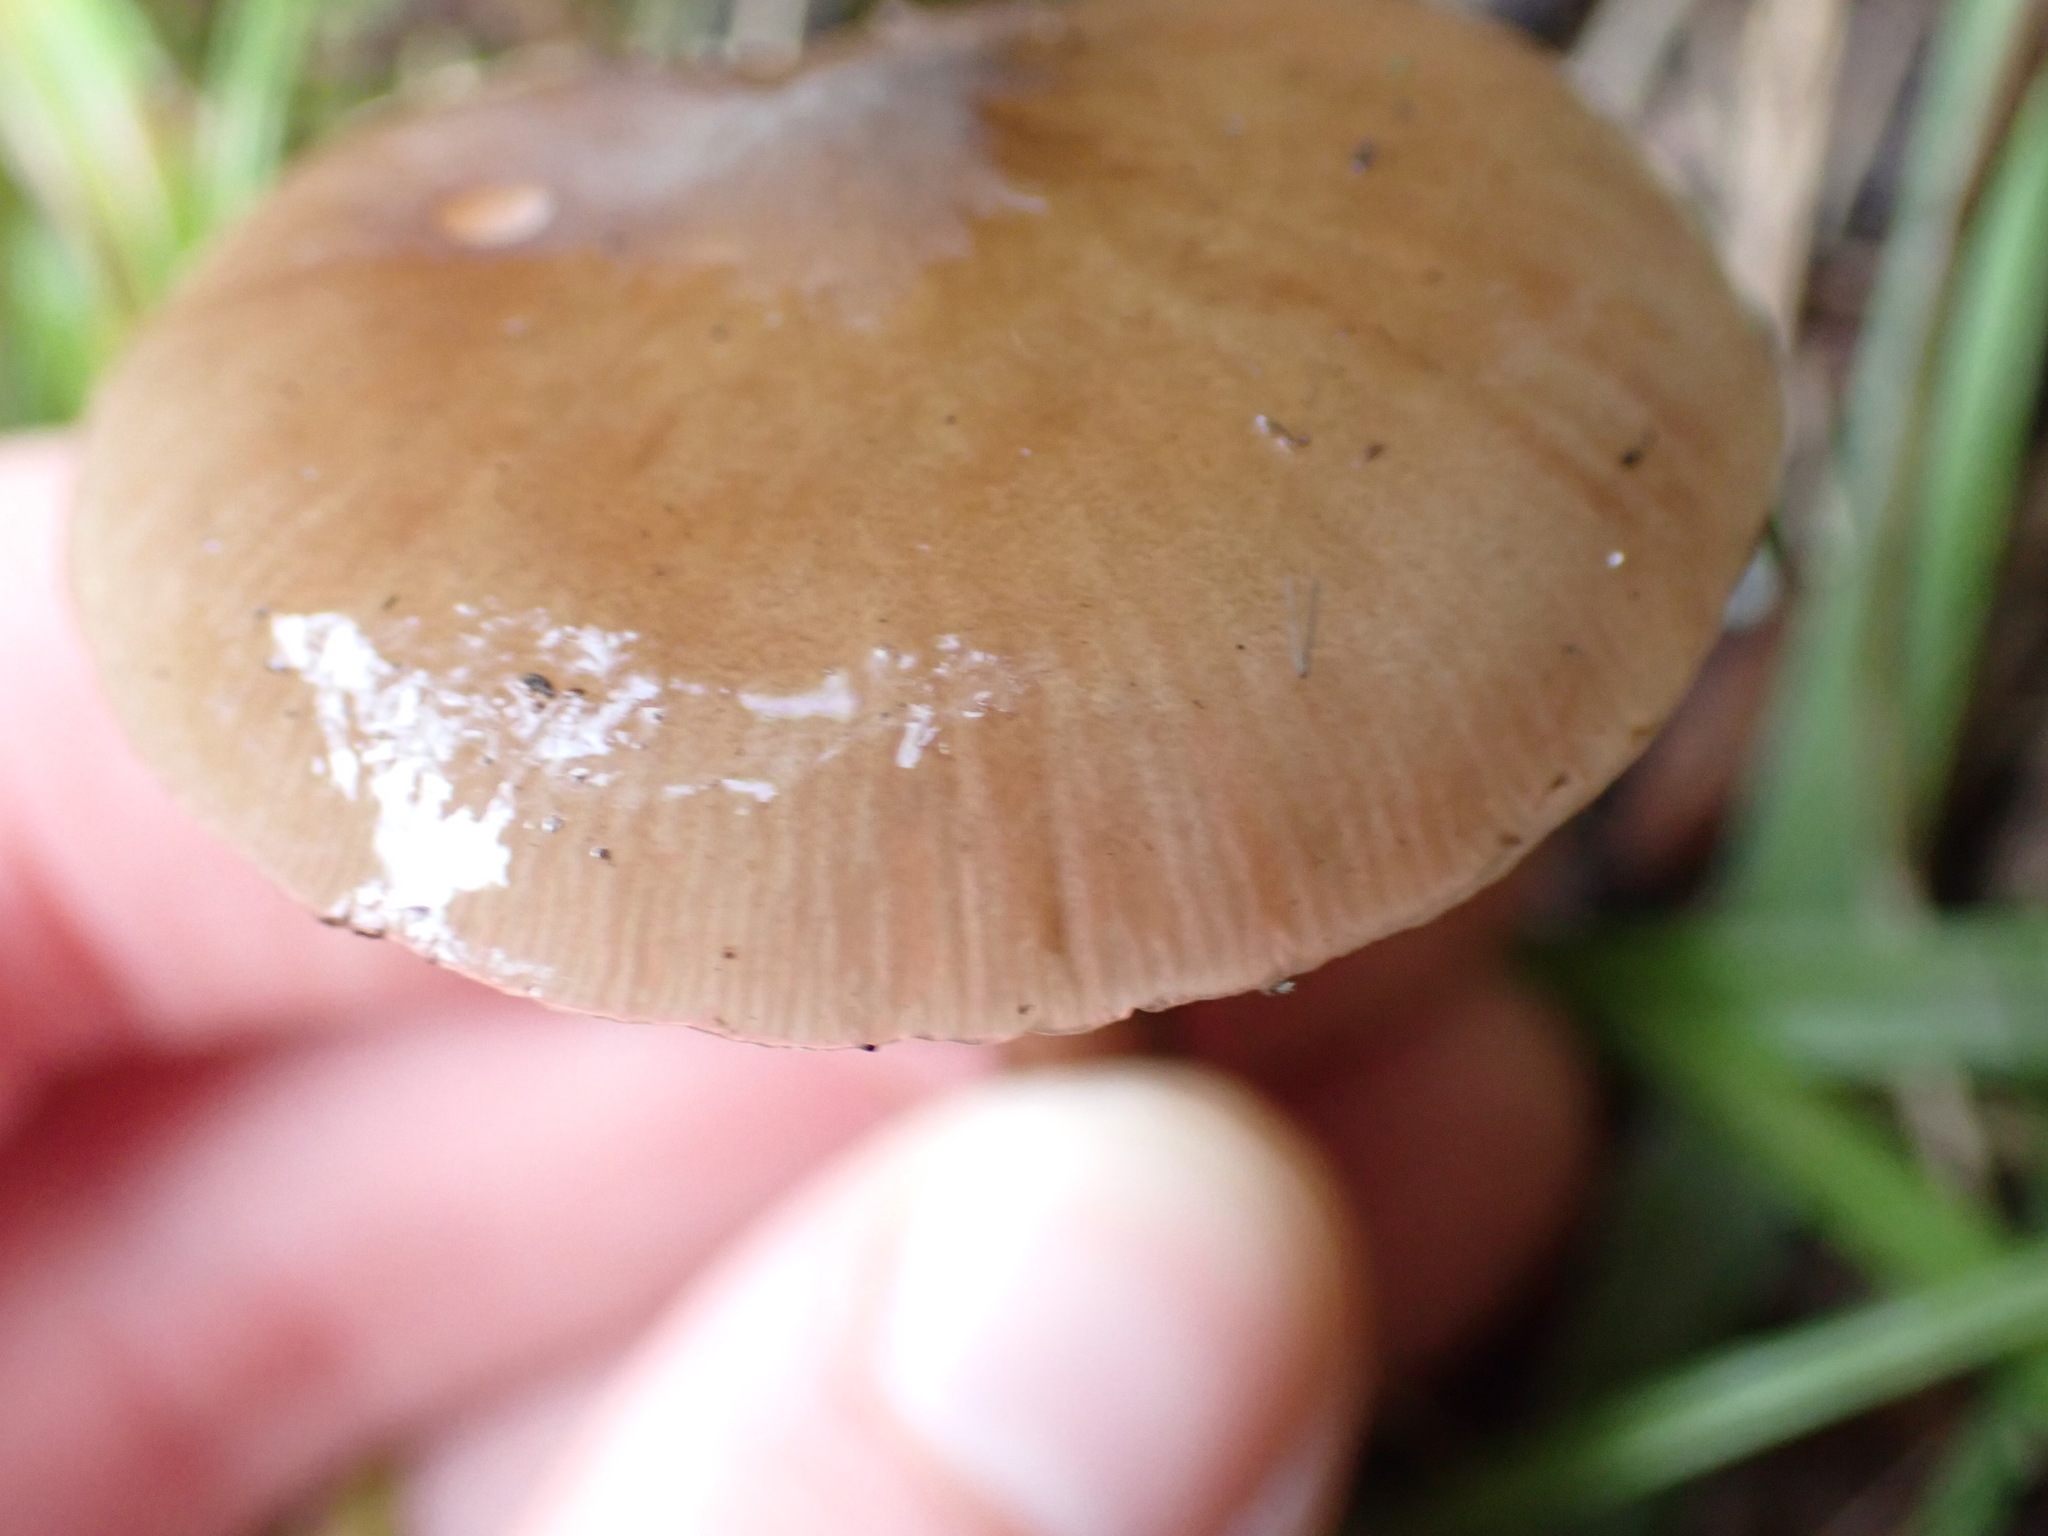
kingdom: Fungi
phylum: Basidiomycota
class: Agaricomycetes
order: Agaricales
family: Physalacriaceae
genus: Armillaria
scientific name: Armillaria novae-zelandiae
